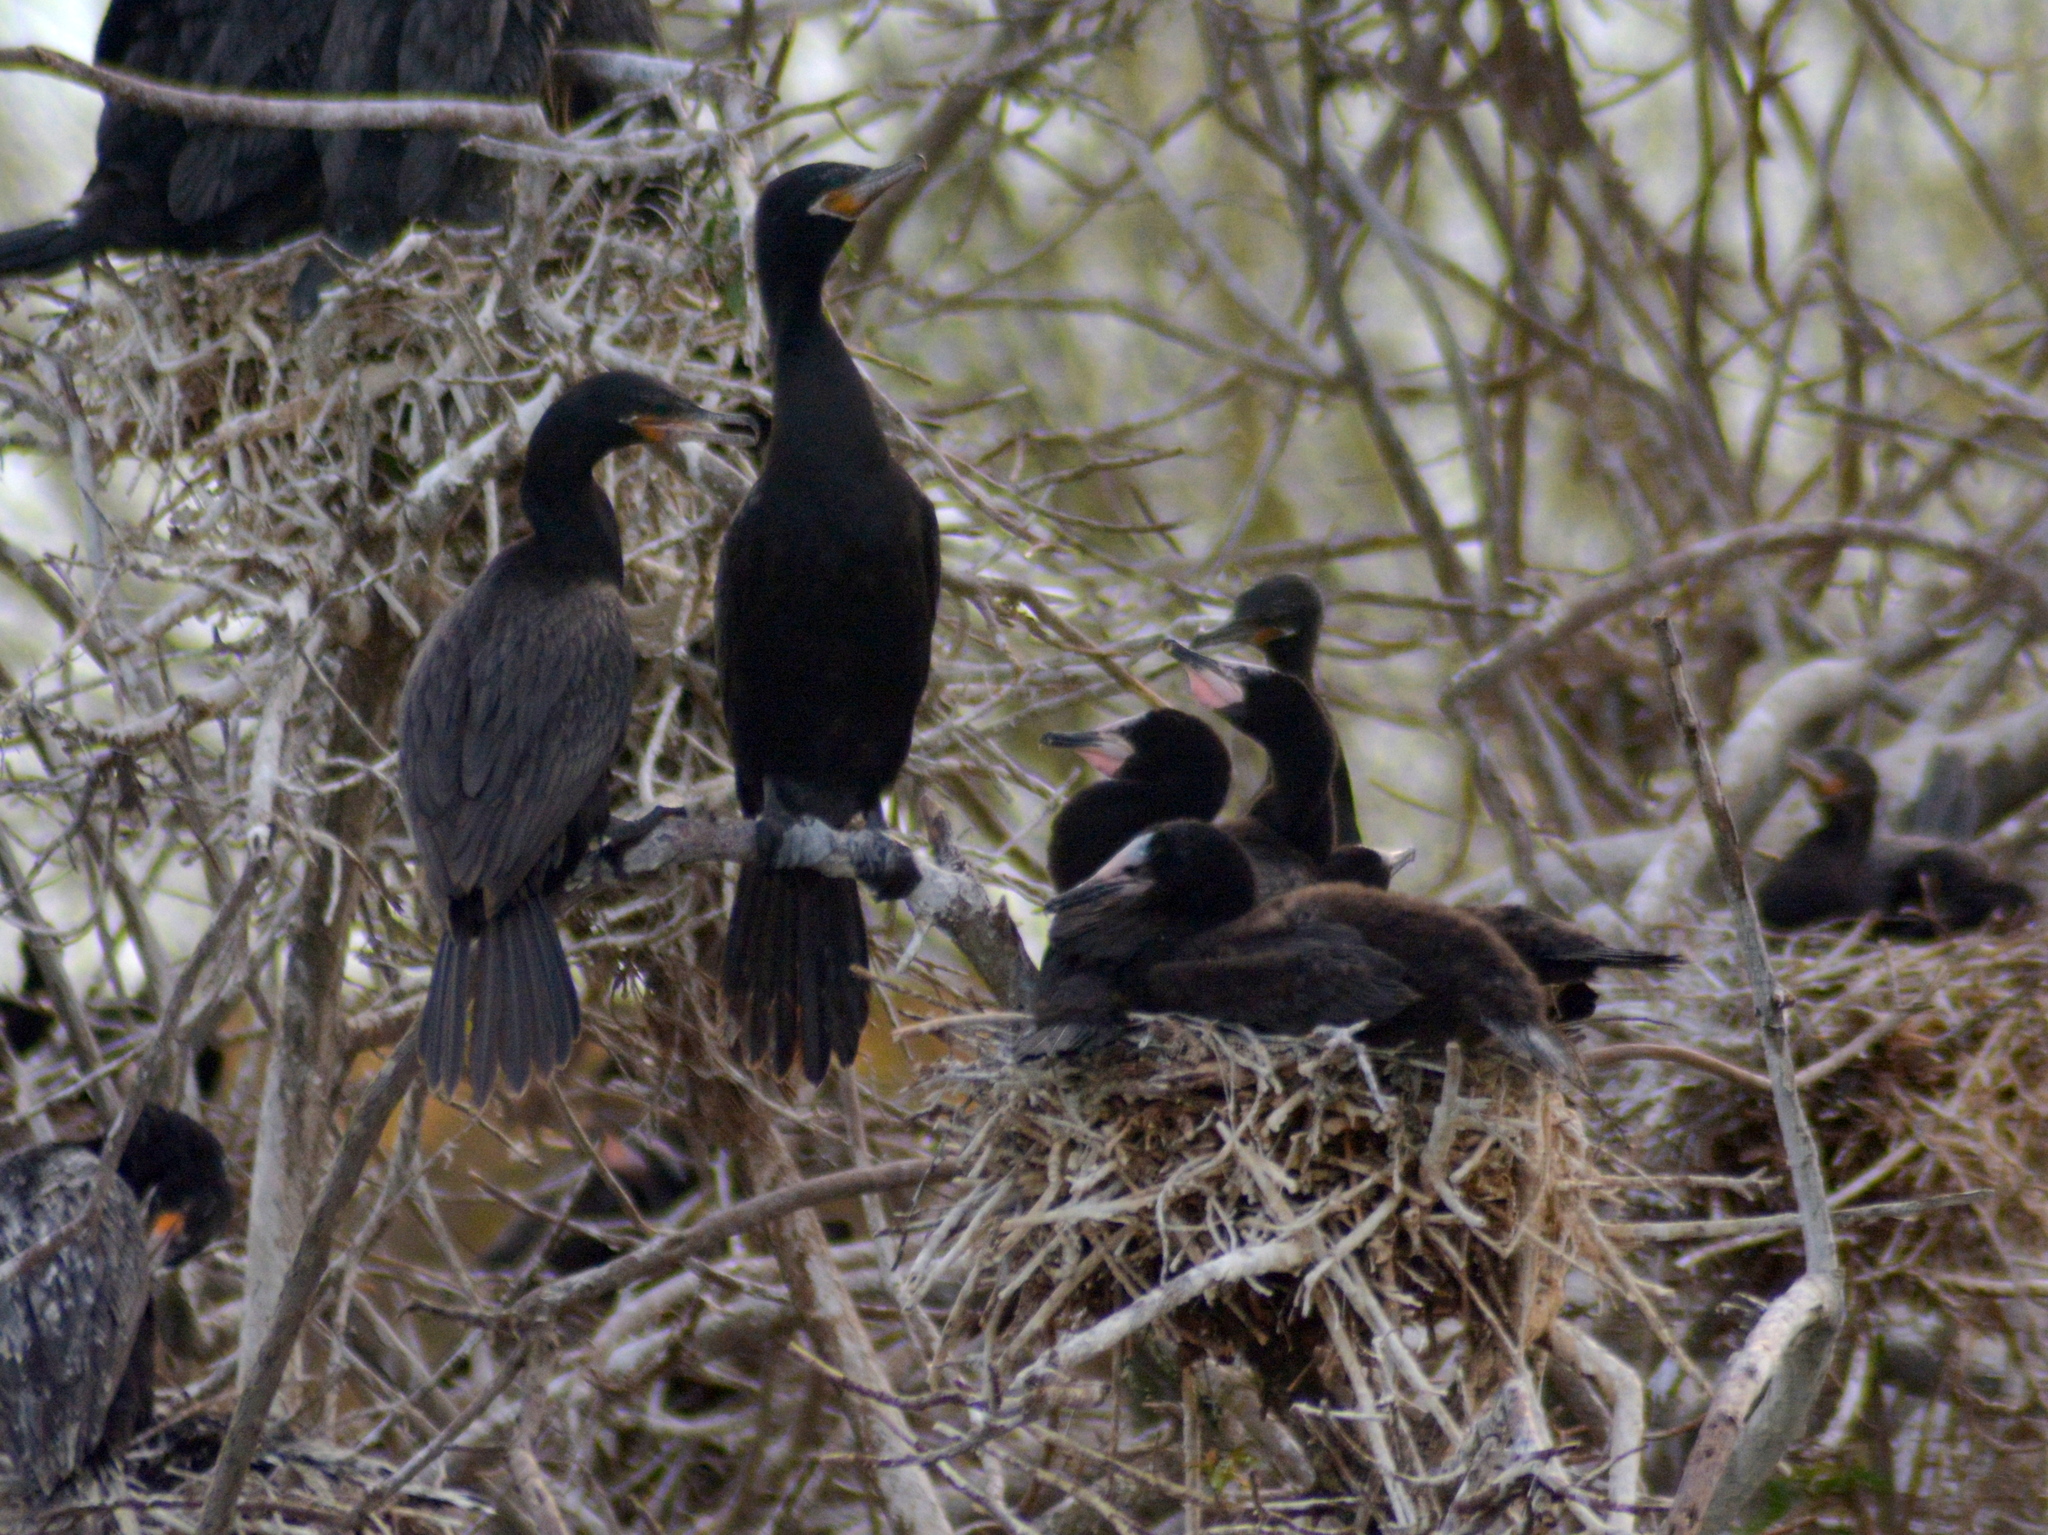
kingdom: Animalia
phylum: Chordata
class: Aves
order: Suliformes
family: Phalacrocoracidae
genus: Phalacrocorax
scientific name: Phalacrocorax brasilianus
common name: Neotropic cormorant
